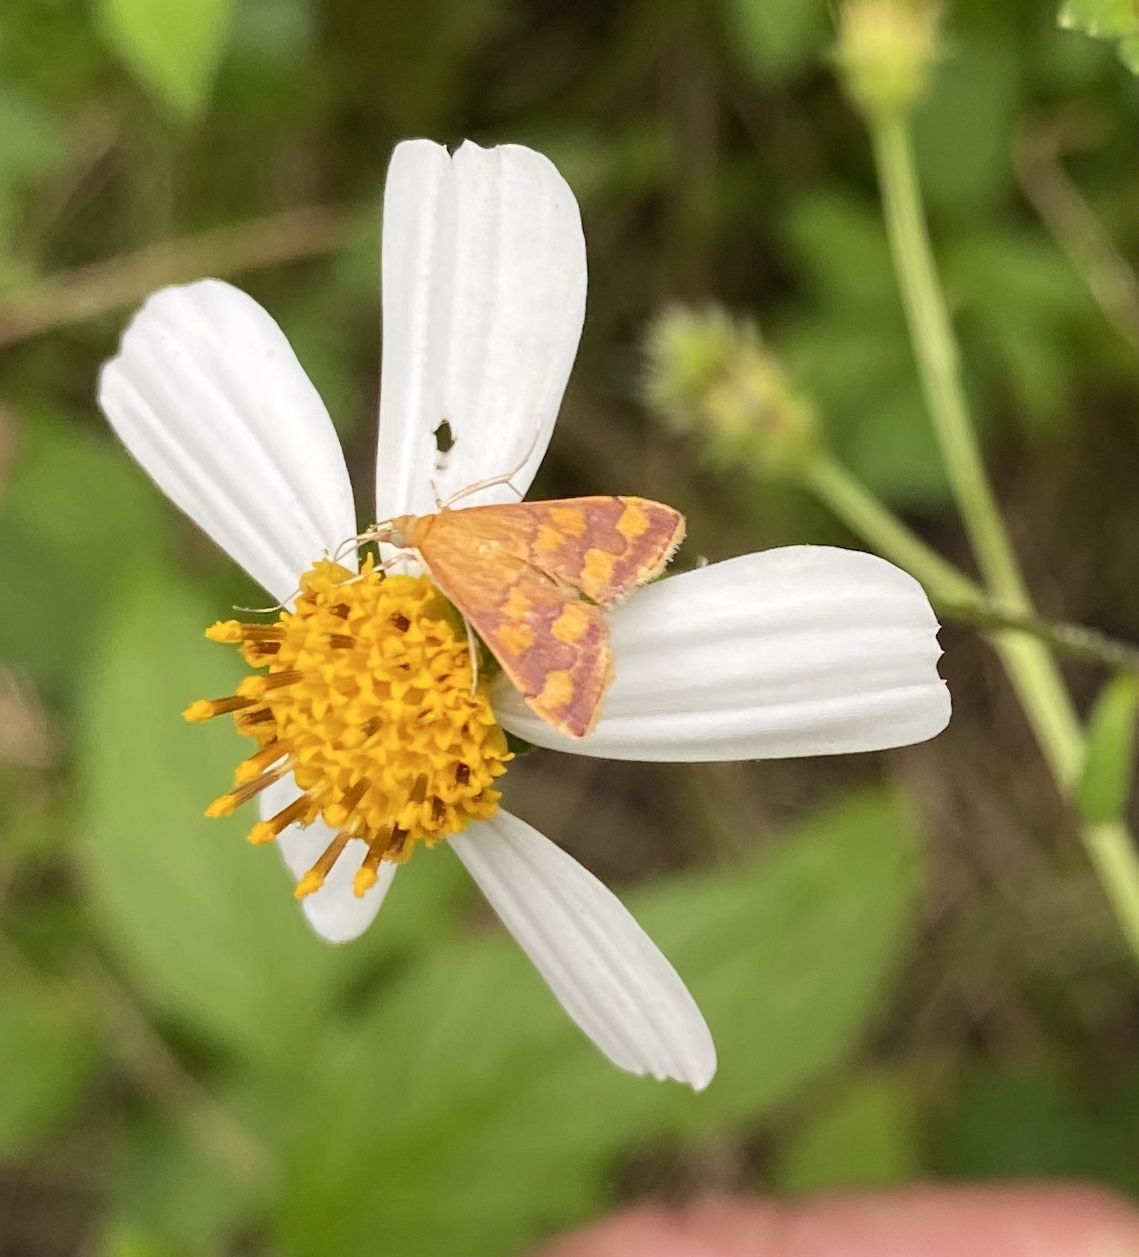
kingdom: Animalia
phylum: Arthropoda
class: Insecta
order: Lepidoptera
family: Crambidae
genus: Pyrausta
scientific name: Pyrausta phoenicealis
